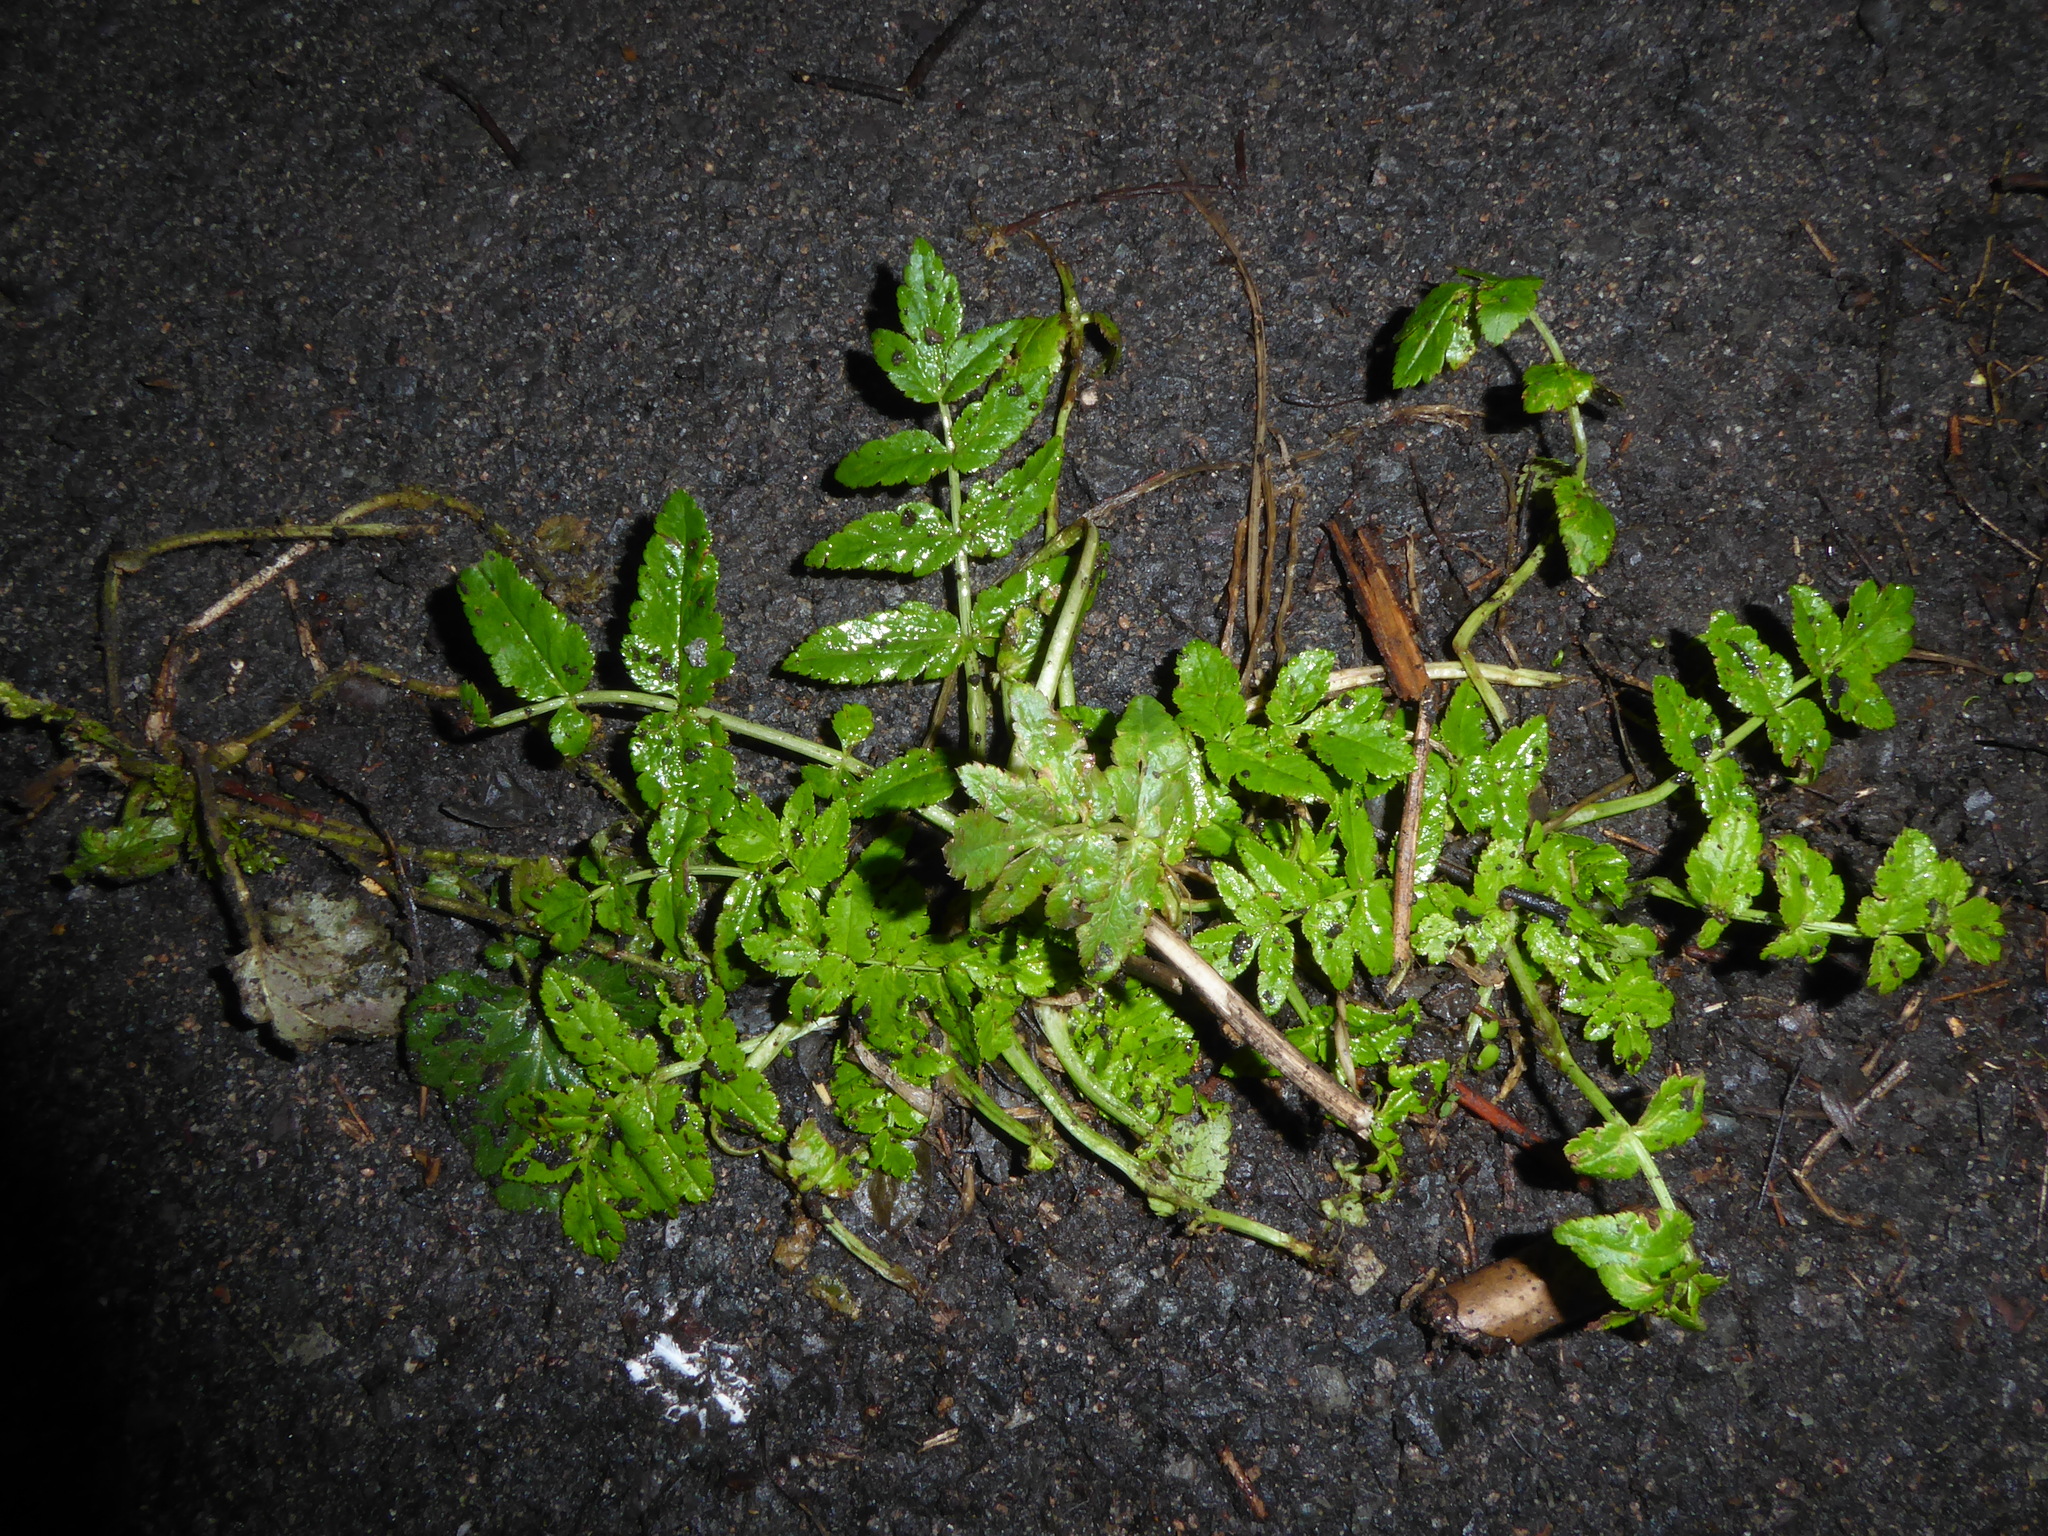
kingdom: Plantae
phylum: Tracheophyta
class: Magnoliopsida
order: Apiales
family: Apiaceae
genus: Sison
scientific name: Sison amomum
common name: Stone-parsley
